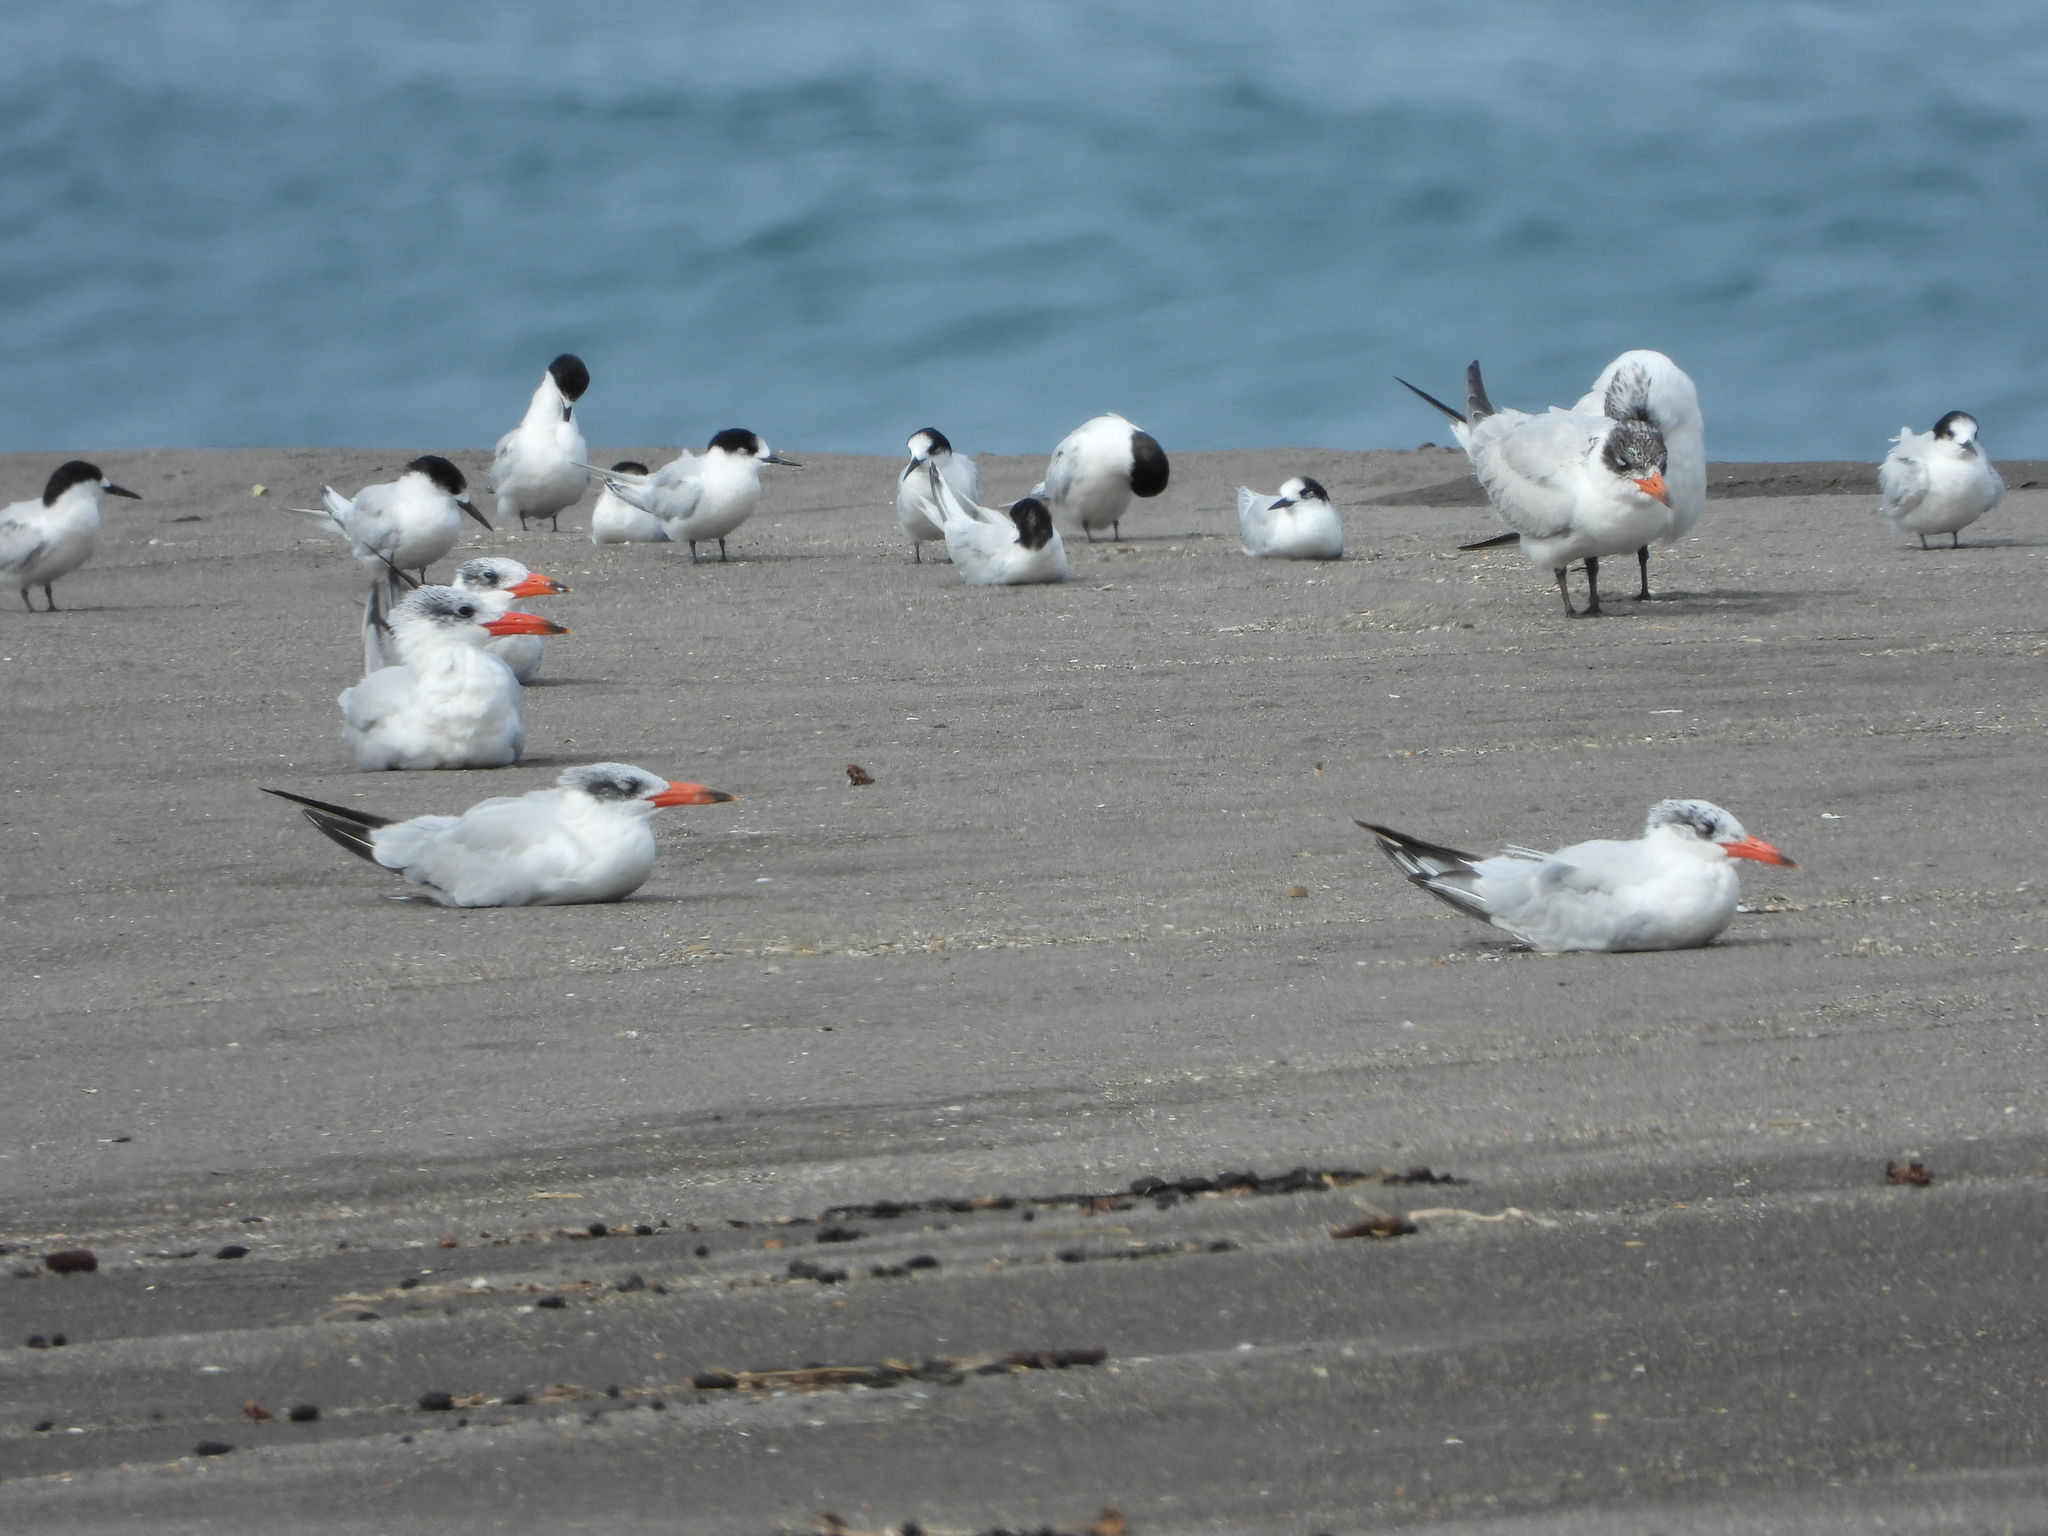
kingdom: Animalia
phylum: Chordata
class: Aves
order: Charadriiformes
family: Laridae
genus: Hydroprogne
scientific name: Hydroprogne caspia
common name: Caspian tern
